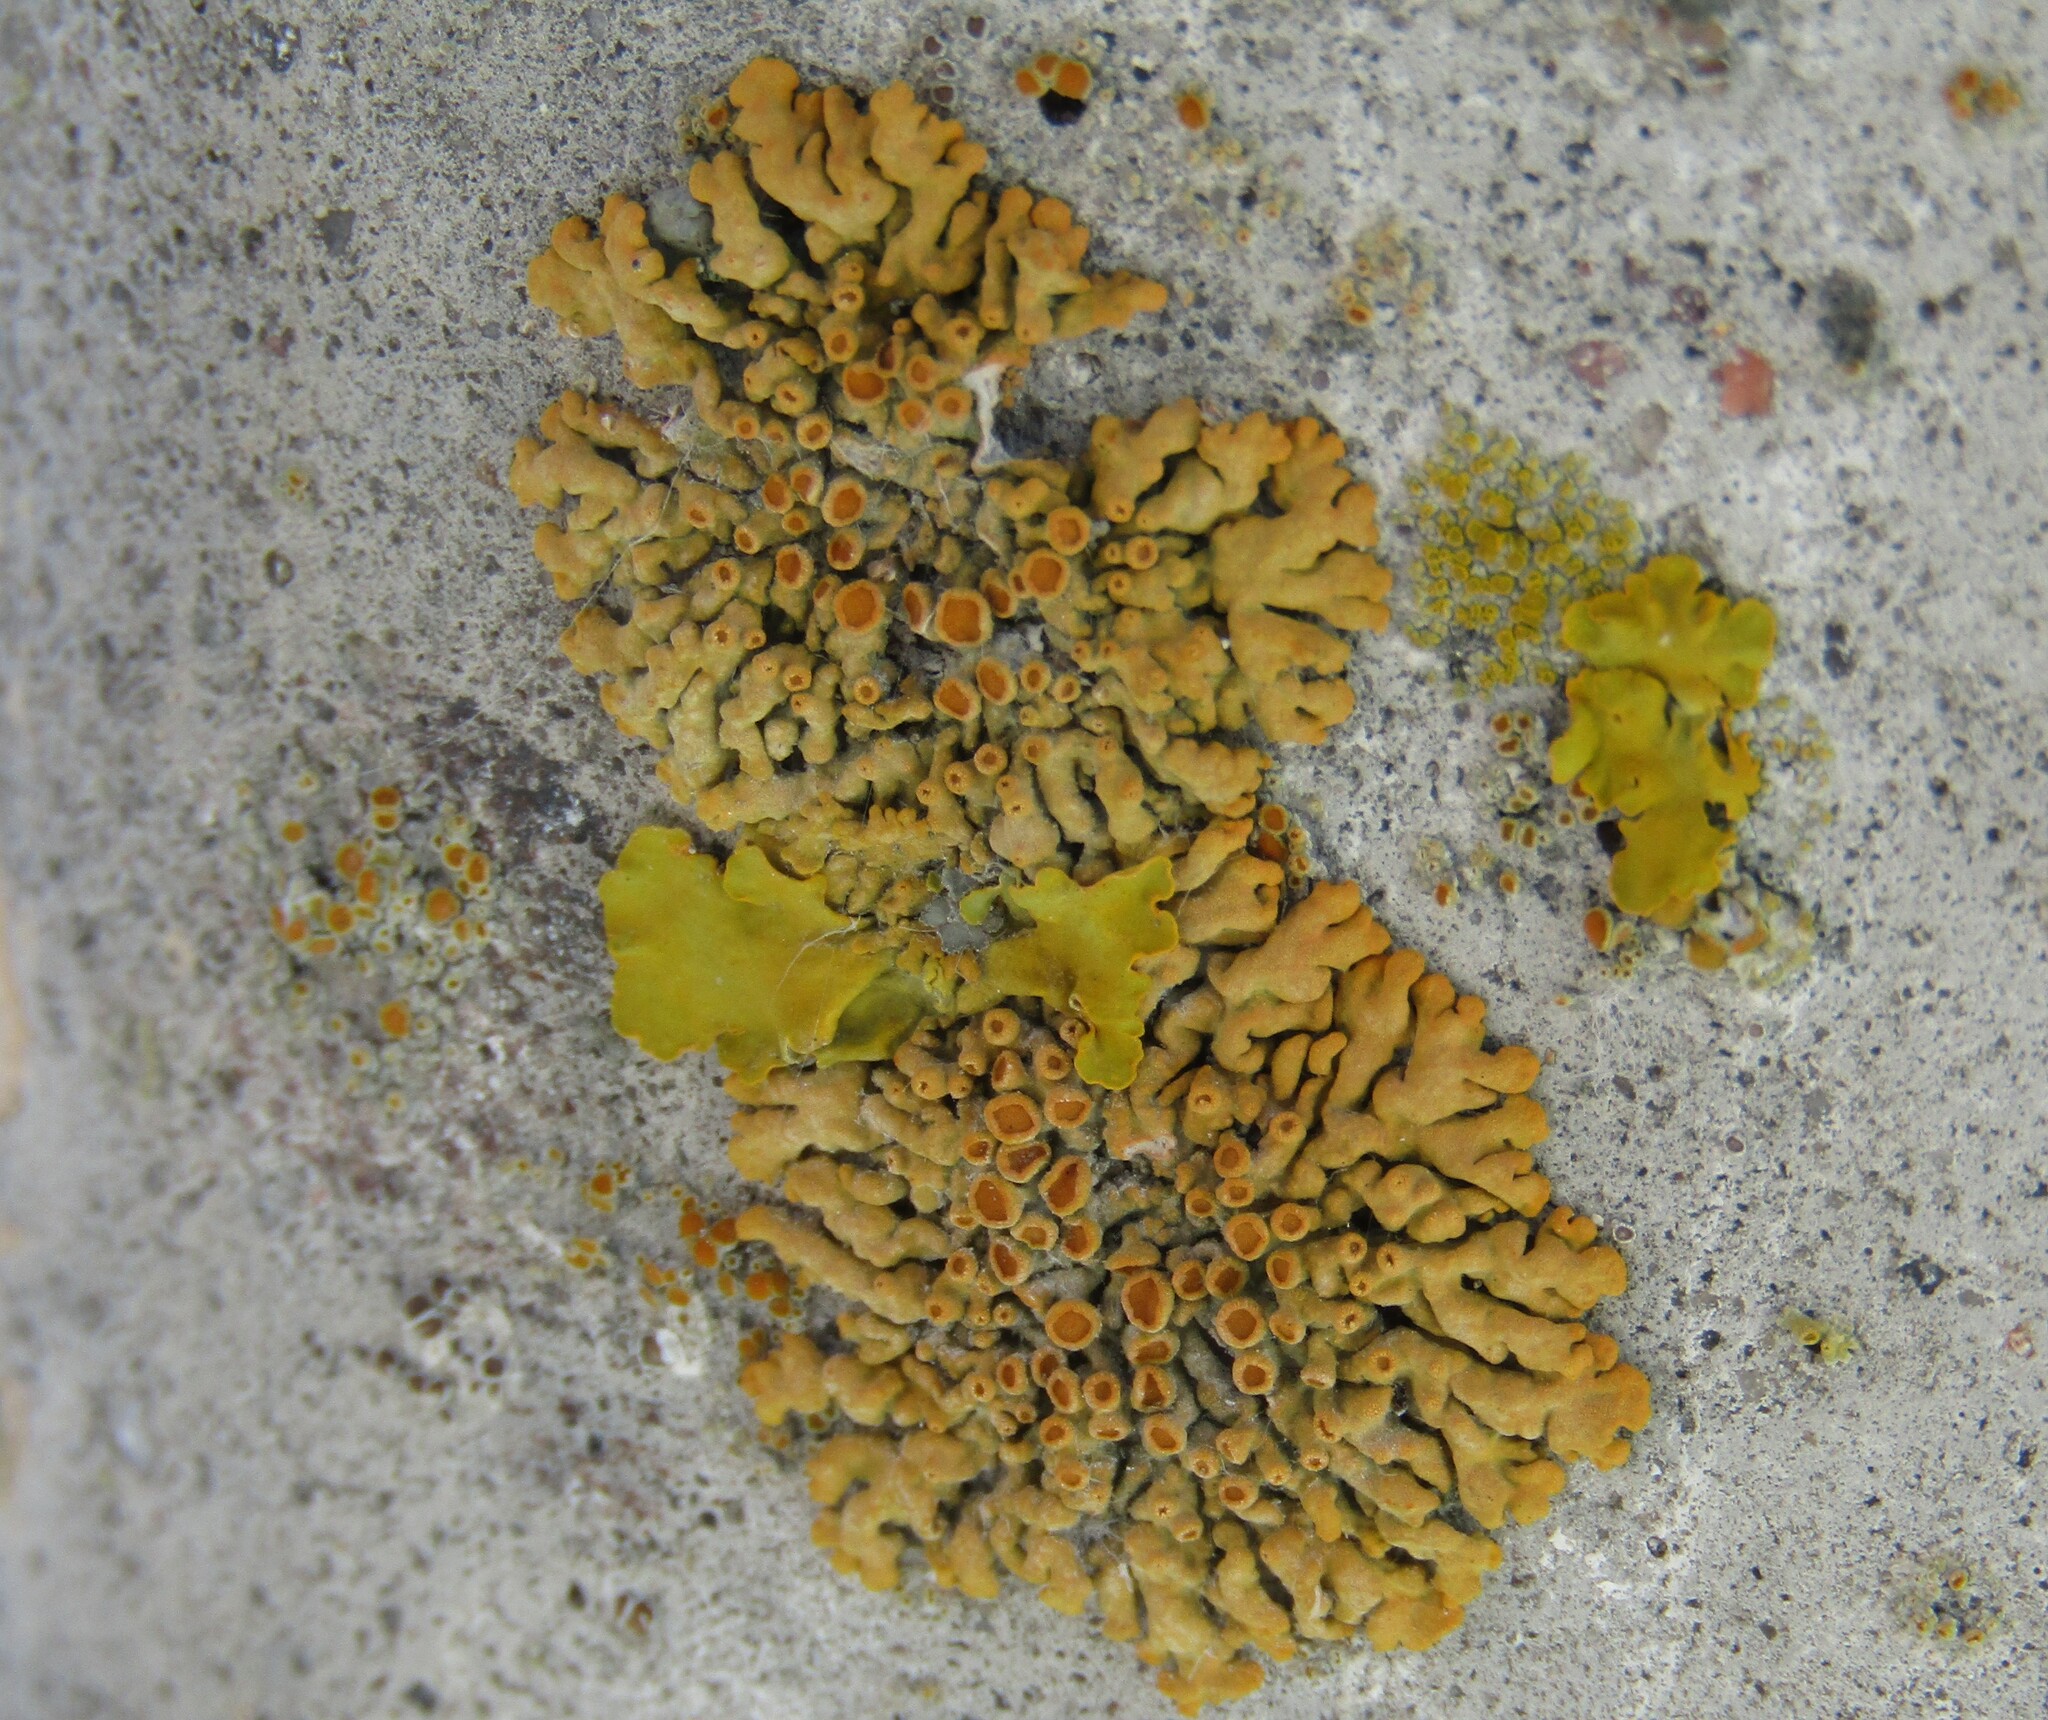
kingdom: Fungi
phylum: Ascomycota
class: Lecanoromycetes
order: Teloschistales
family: Teloschistaceae
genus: Xanthoria
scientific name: Xanthoria elegans
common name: Elegant sunburst lichen
